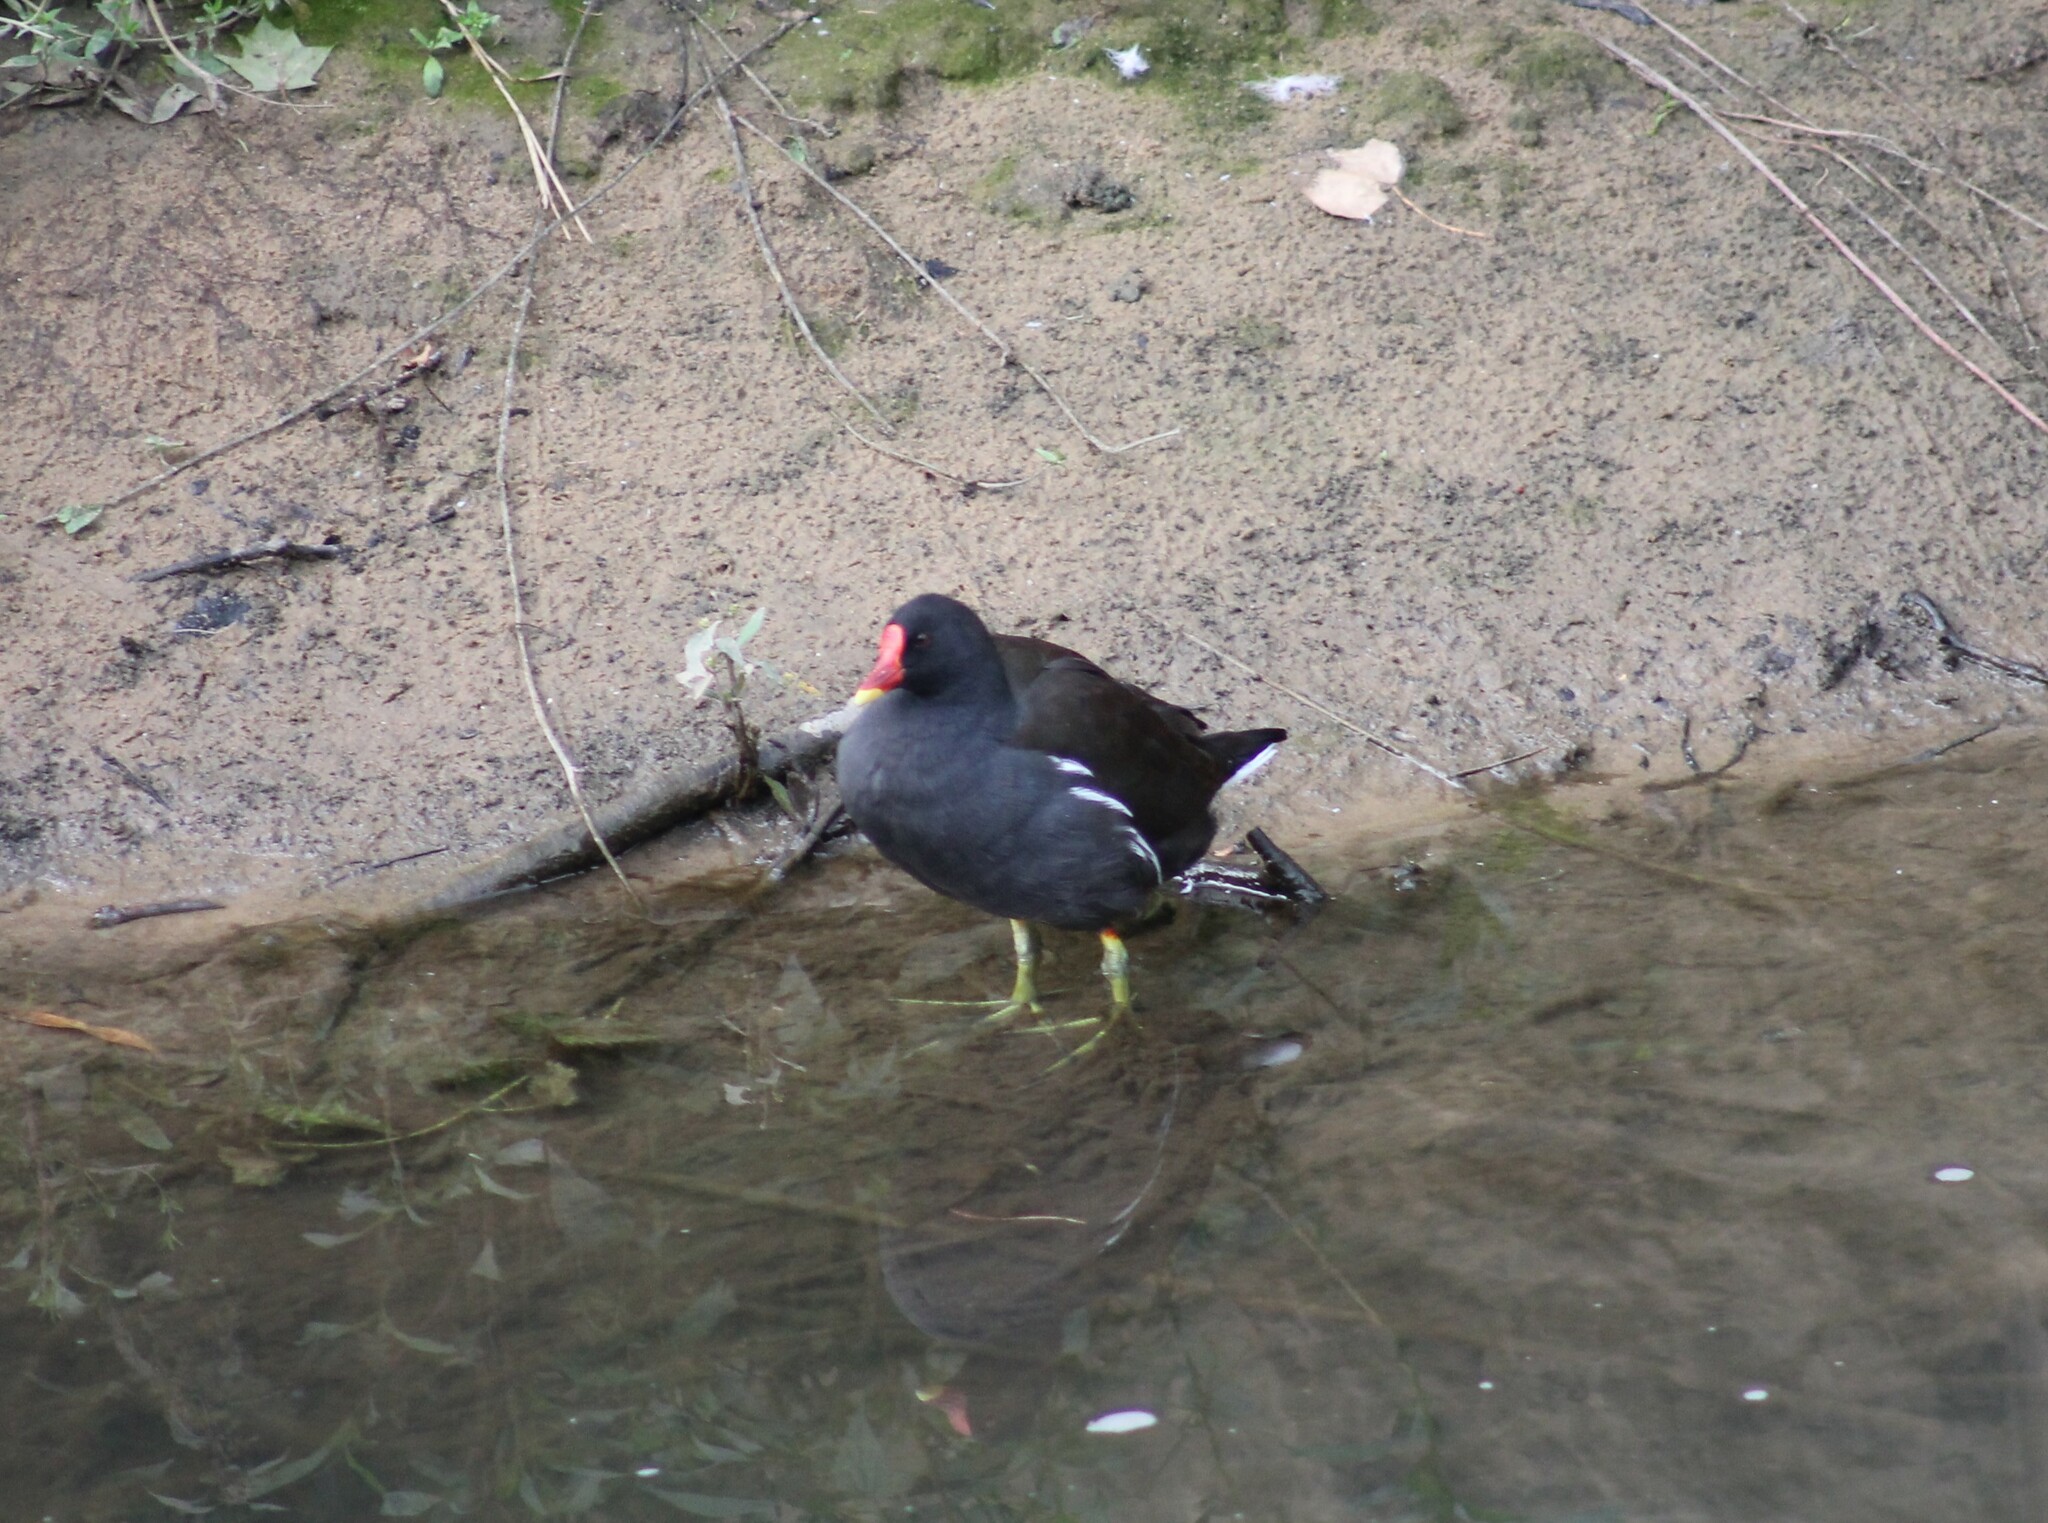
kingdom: Animalia
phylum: Chordata
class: Aves
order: Gruiformes
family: Rallidae
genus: Gallinula
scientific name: Gallinula chloropus
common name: Common moorhen
